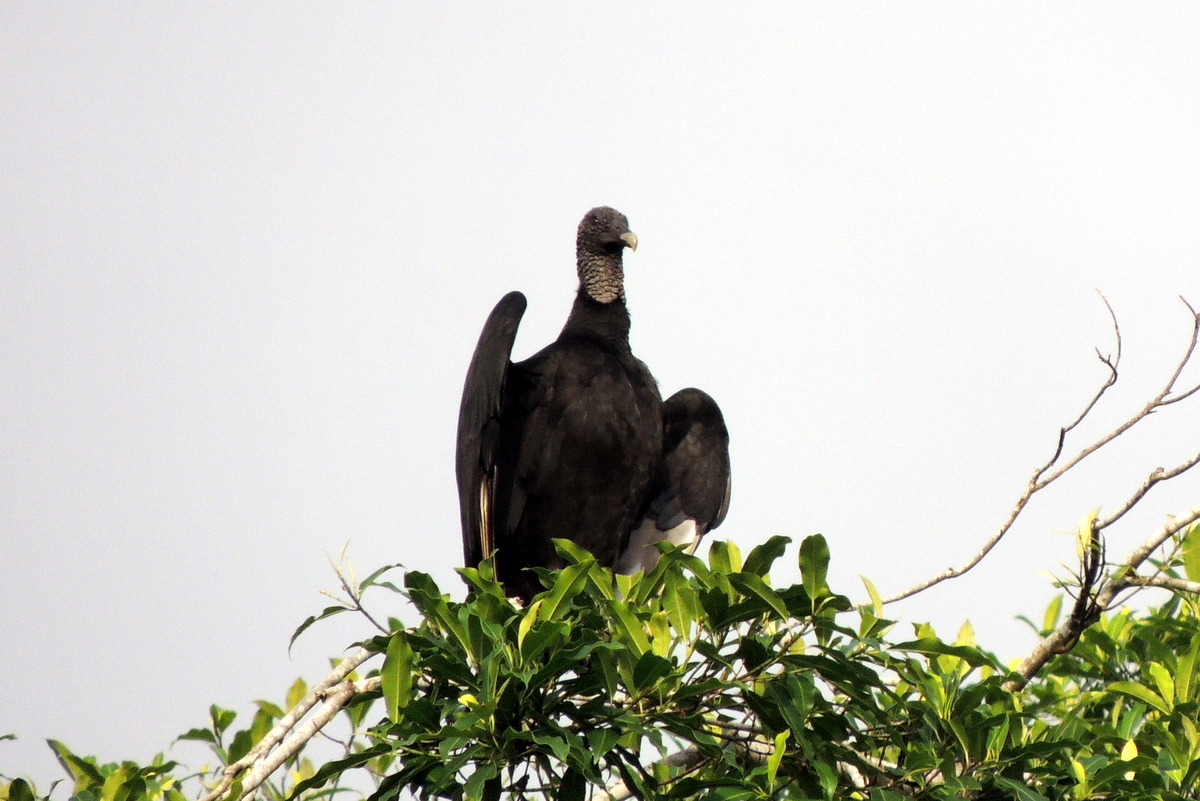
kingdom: Animalia
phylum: Chordata
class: Aves
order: Accipitriformes
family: Cathartidae
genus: Coragyps
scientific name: Coragyps atratus
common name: Black vulture
